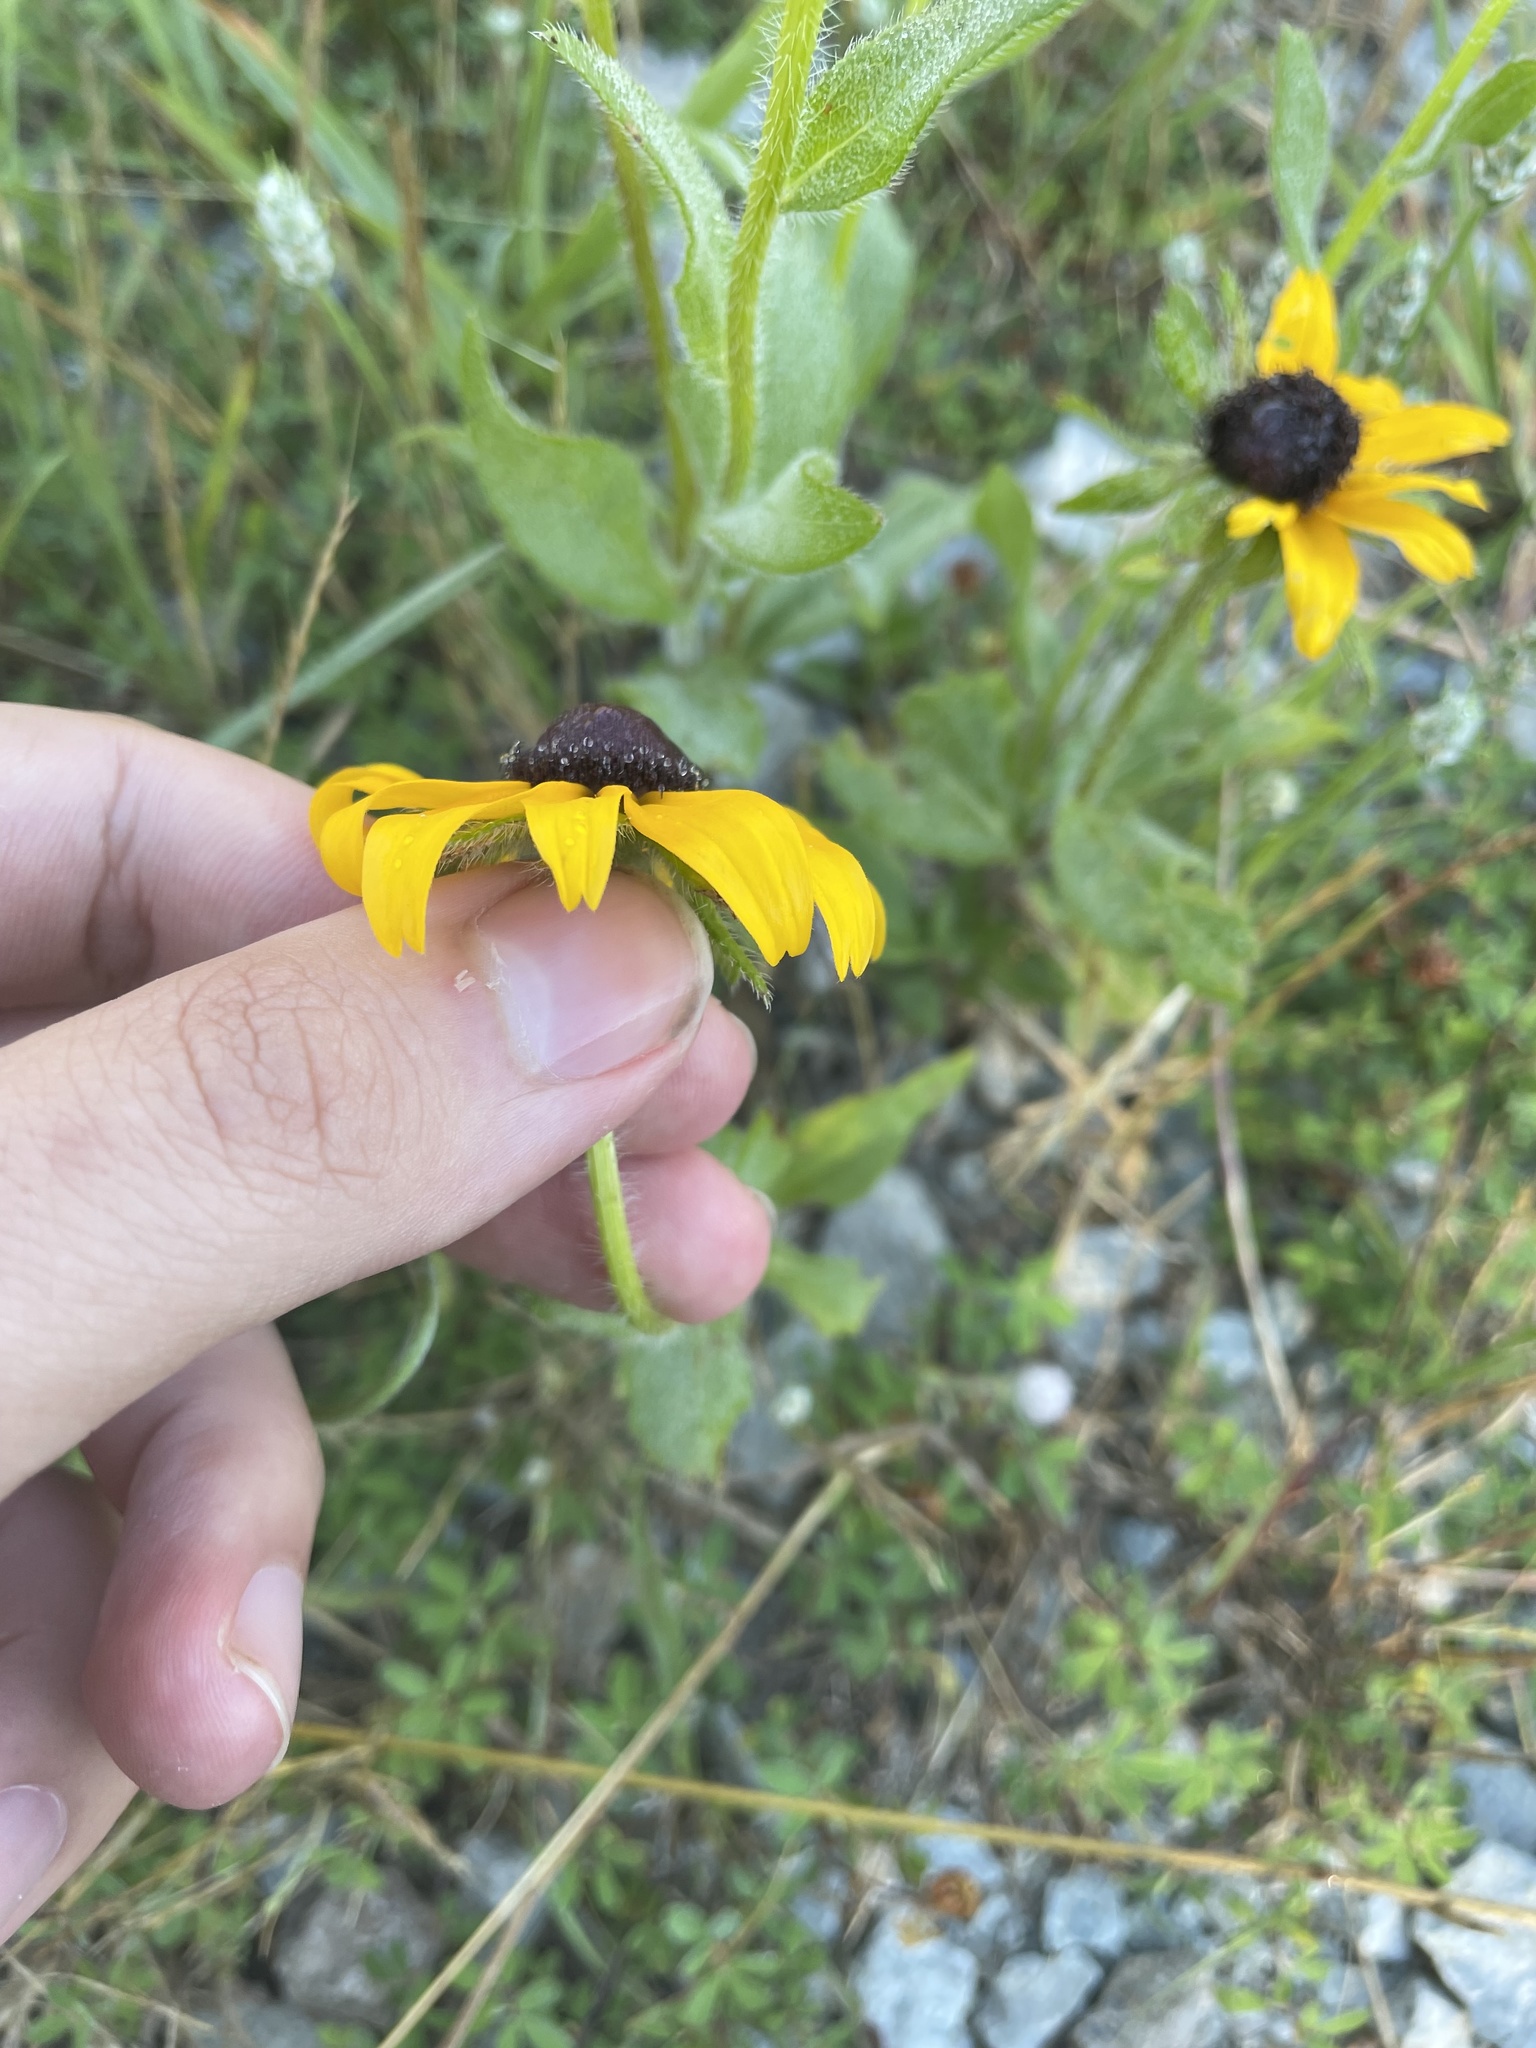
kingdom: Plantae
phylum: Tracheophyta
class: Magnoliopsida
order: Asterales
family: Asteraceae
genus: Rudbeckia
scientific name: Rudbeckia hirta
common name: Black-eyed-susan
